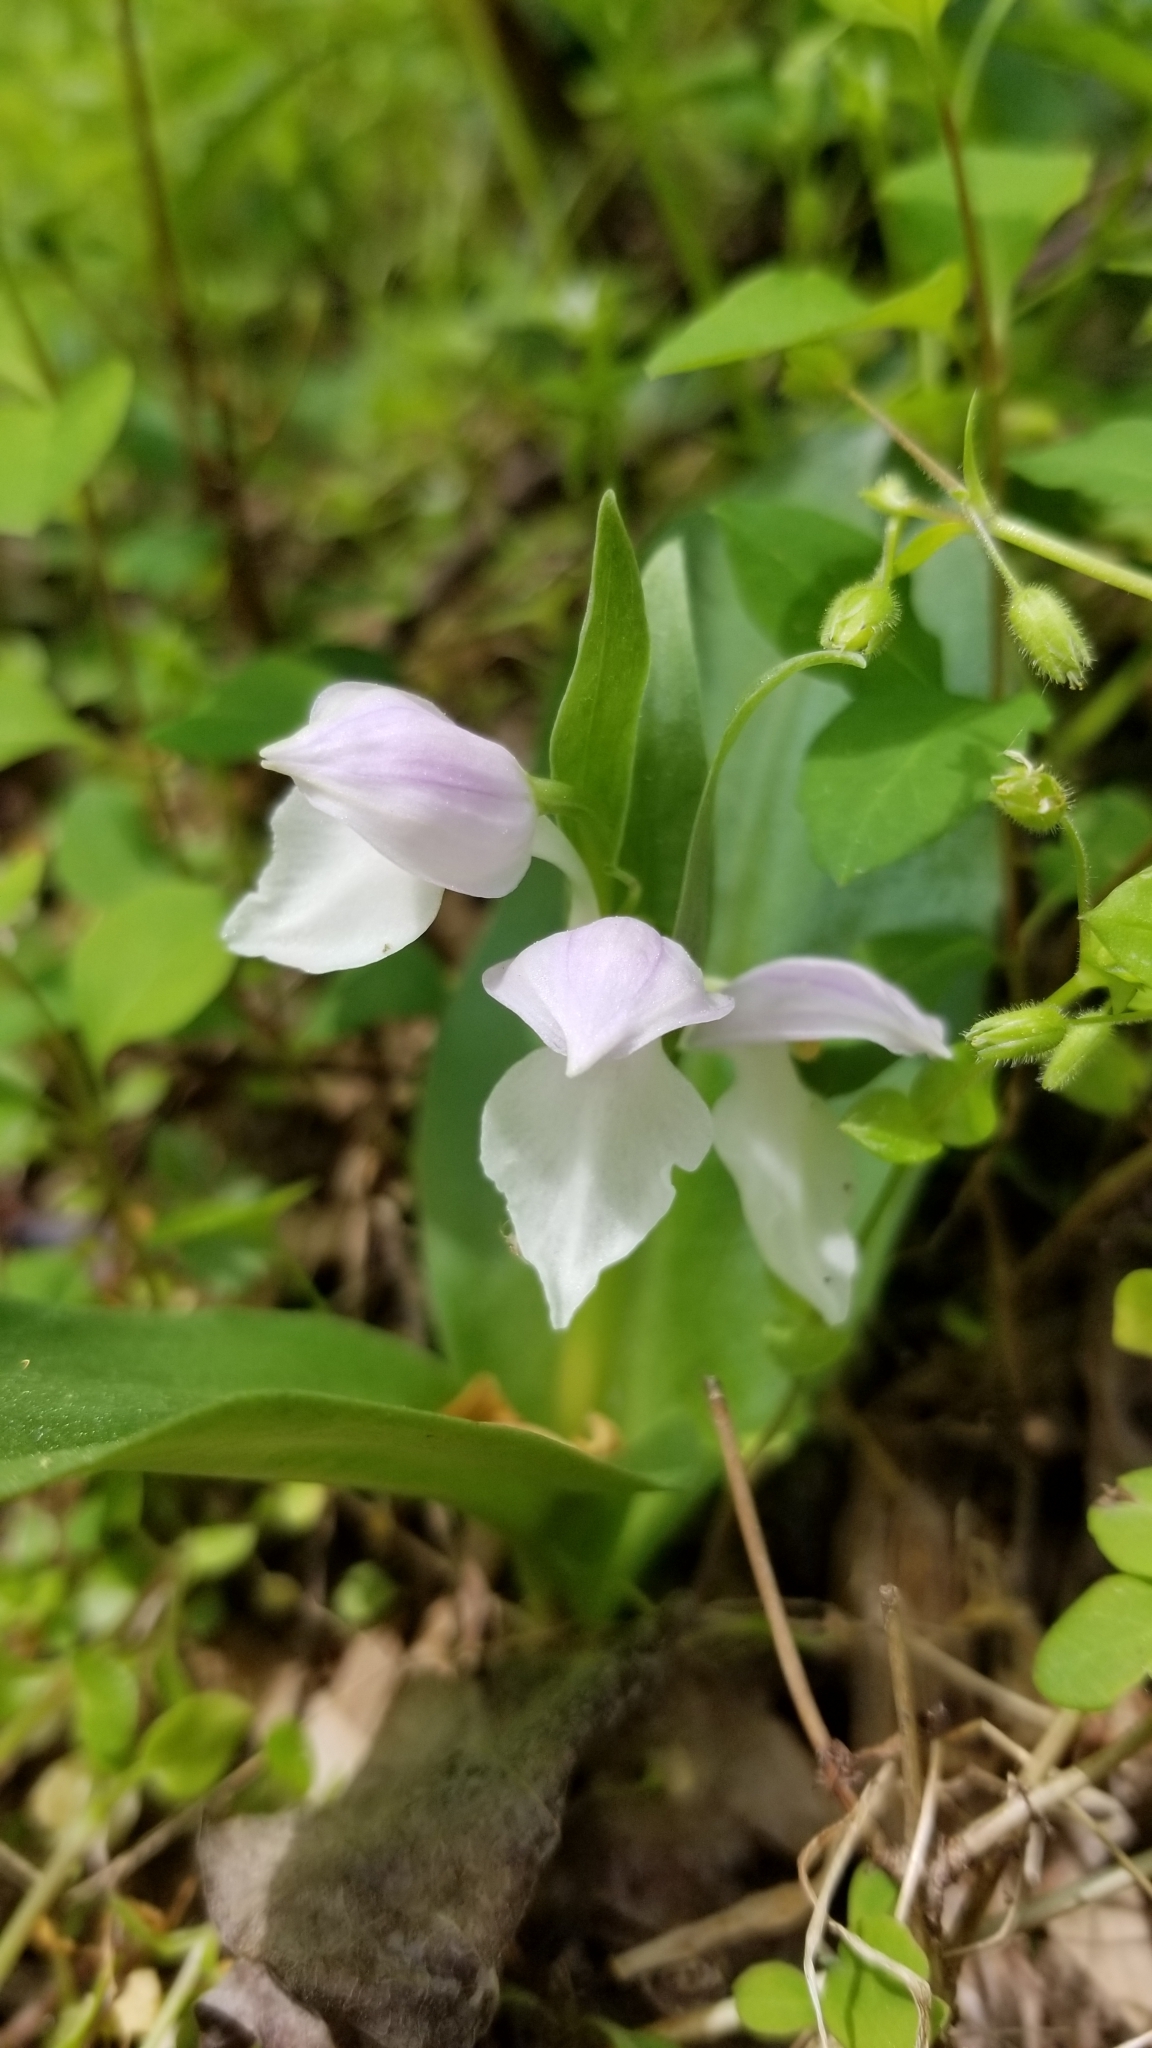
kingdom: Plantae
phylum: Tracheophyta
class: Liliopsida
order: Asparagales
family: Orchidaceae
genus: Galearis
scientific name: Galearis spectabilis
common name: Purple-hooded orchis
